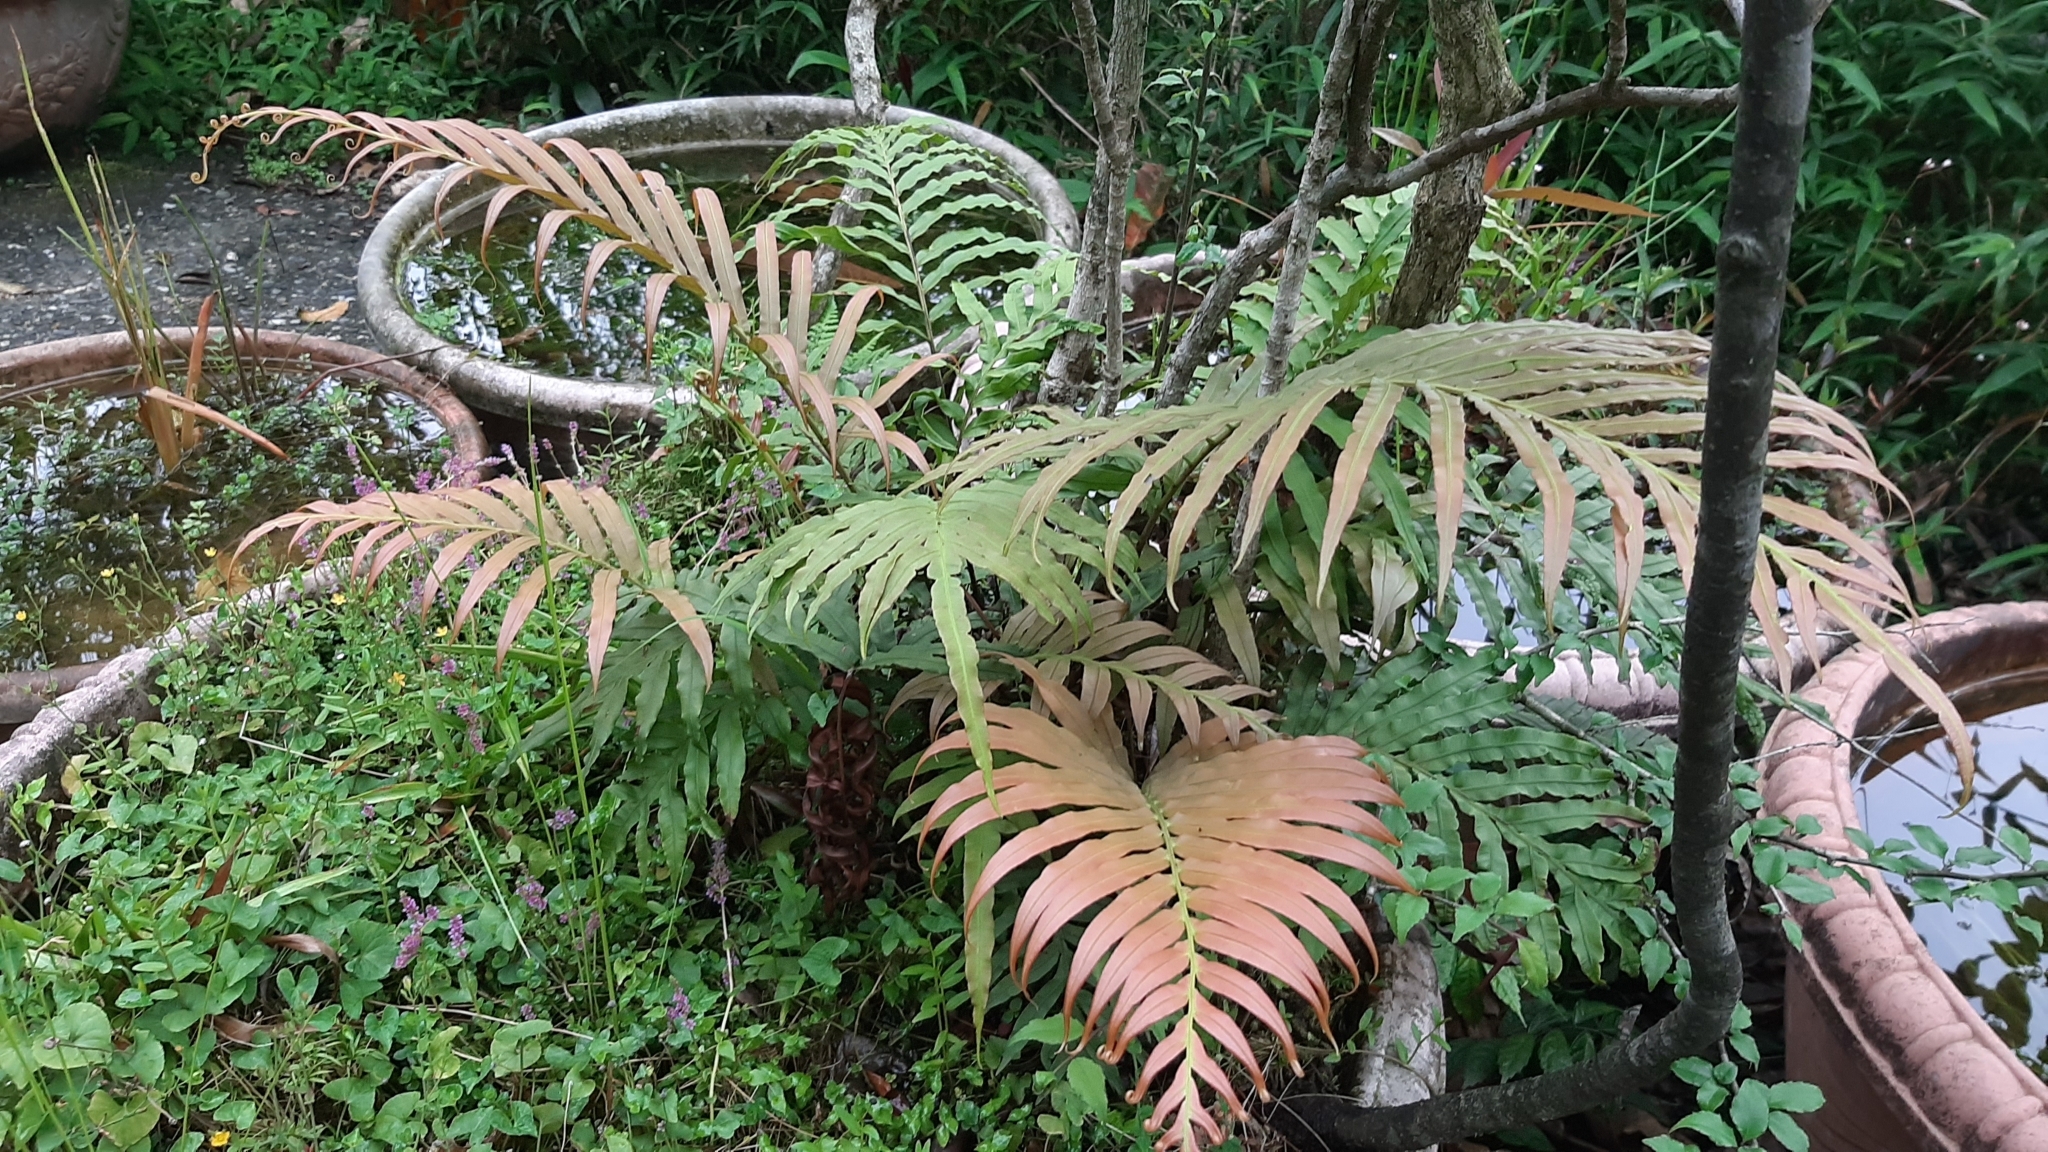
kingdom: Plantae
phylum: Tracheophyta
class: Polypodiopsida
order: Polypodiales
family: Blechnaceae
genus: Blechnopsis
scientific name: Blechnopsis orientalis
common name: Oriental blechnum
